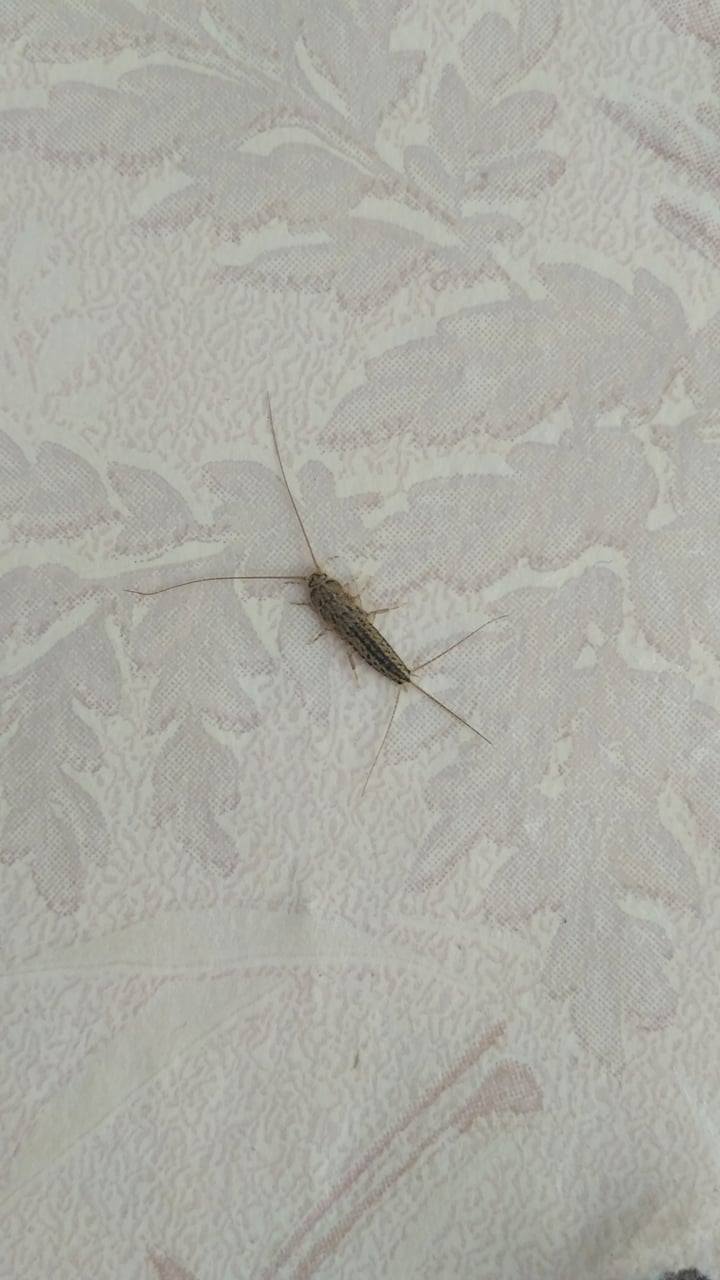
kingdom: Animalia
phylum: Arthropoda
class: Insecta
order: Zygentoma
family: Lepismatidae
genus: Ctenolepisma
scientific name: Ctenolepisma lineata
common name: Four-lined silverfish
